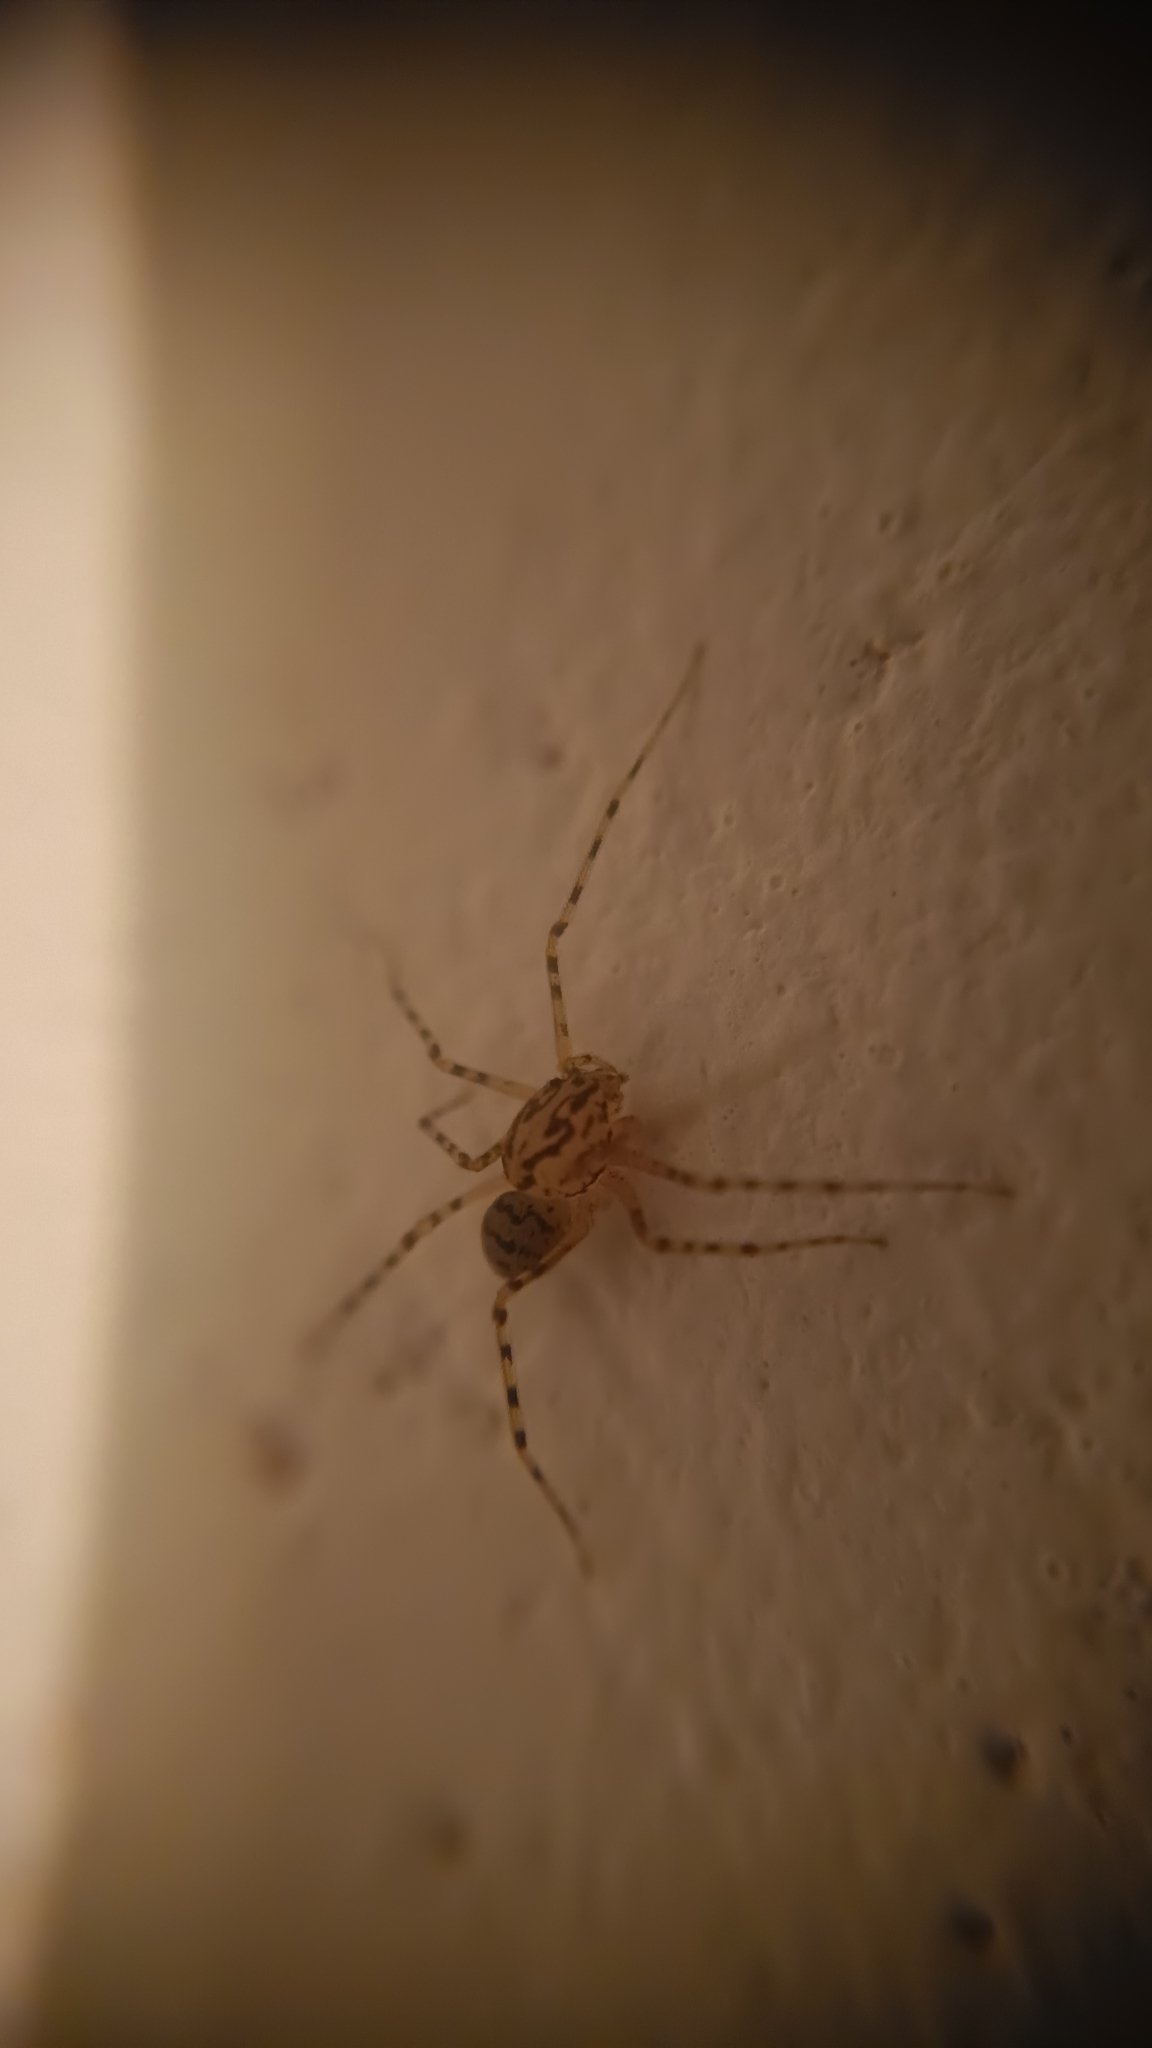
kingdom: Animalia
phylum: Arthropoda
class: Arachnida
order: Araneae
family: Scytodidae
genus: Scytodes
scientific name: Scytodes thoracica
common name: Spitting spider
